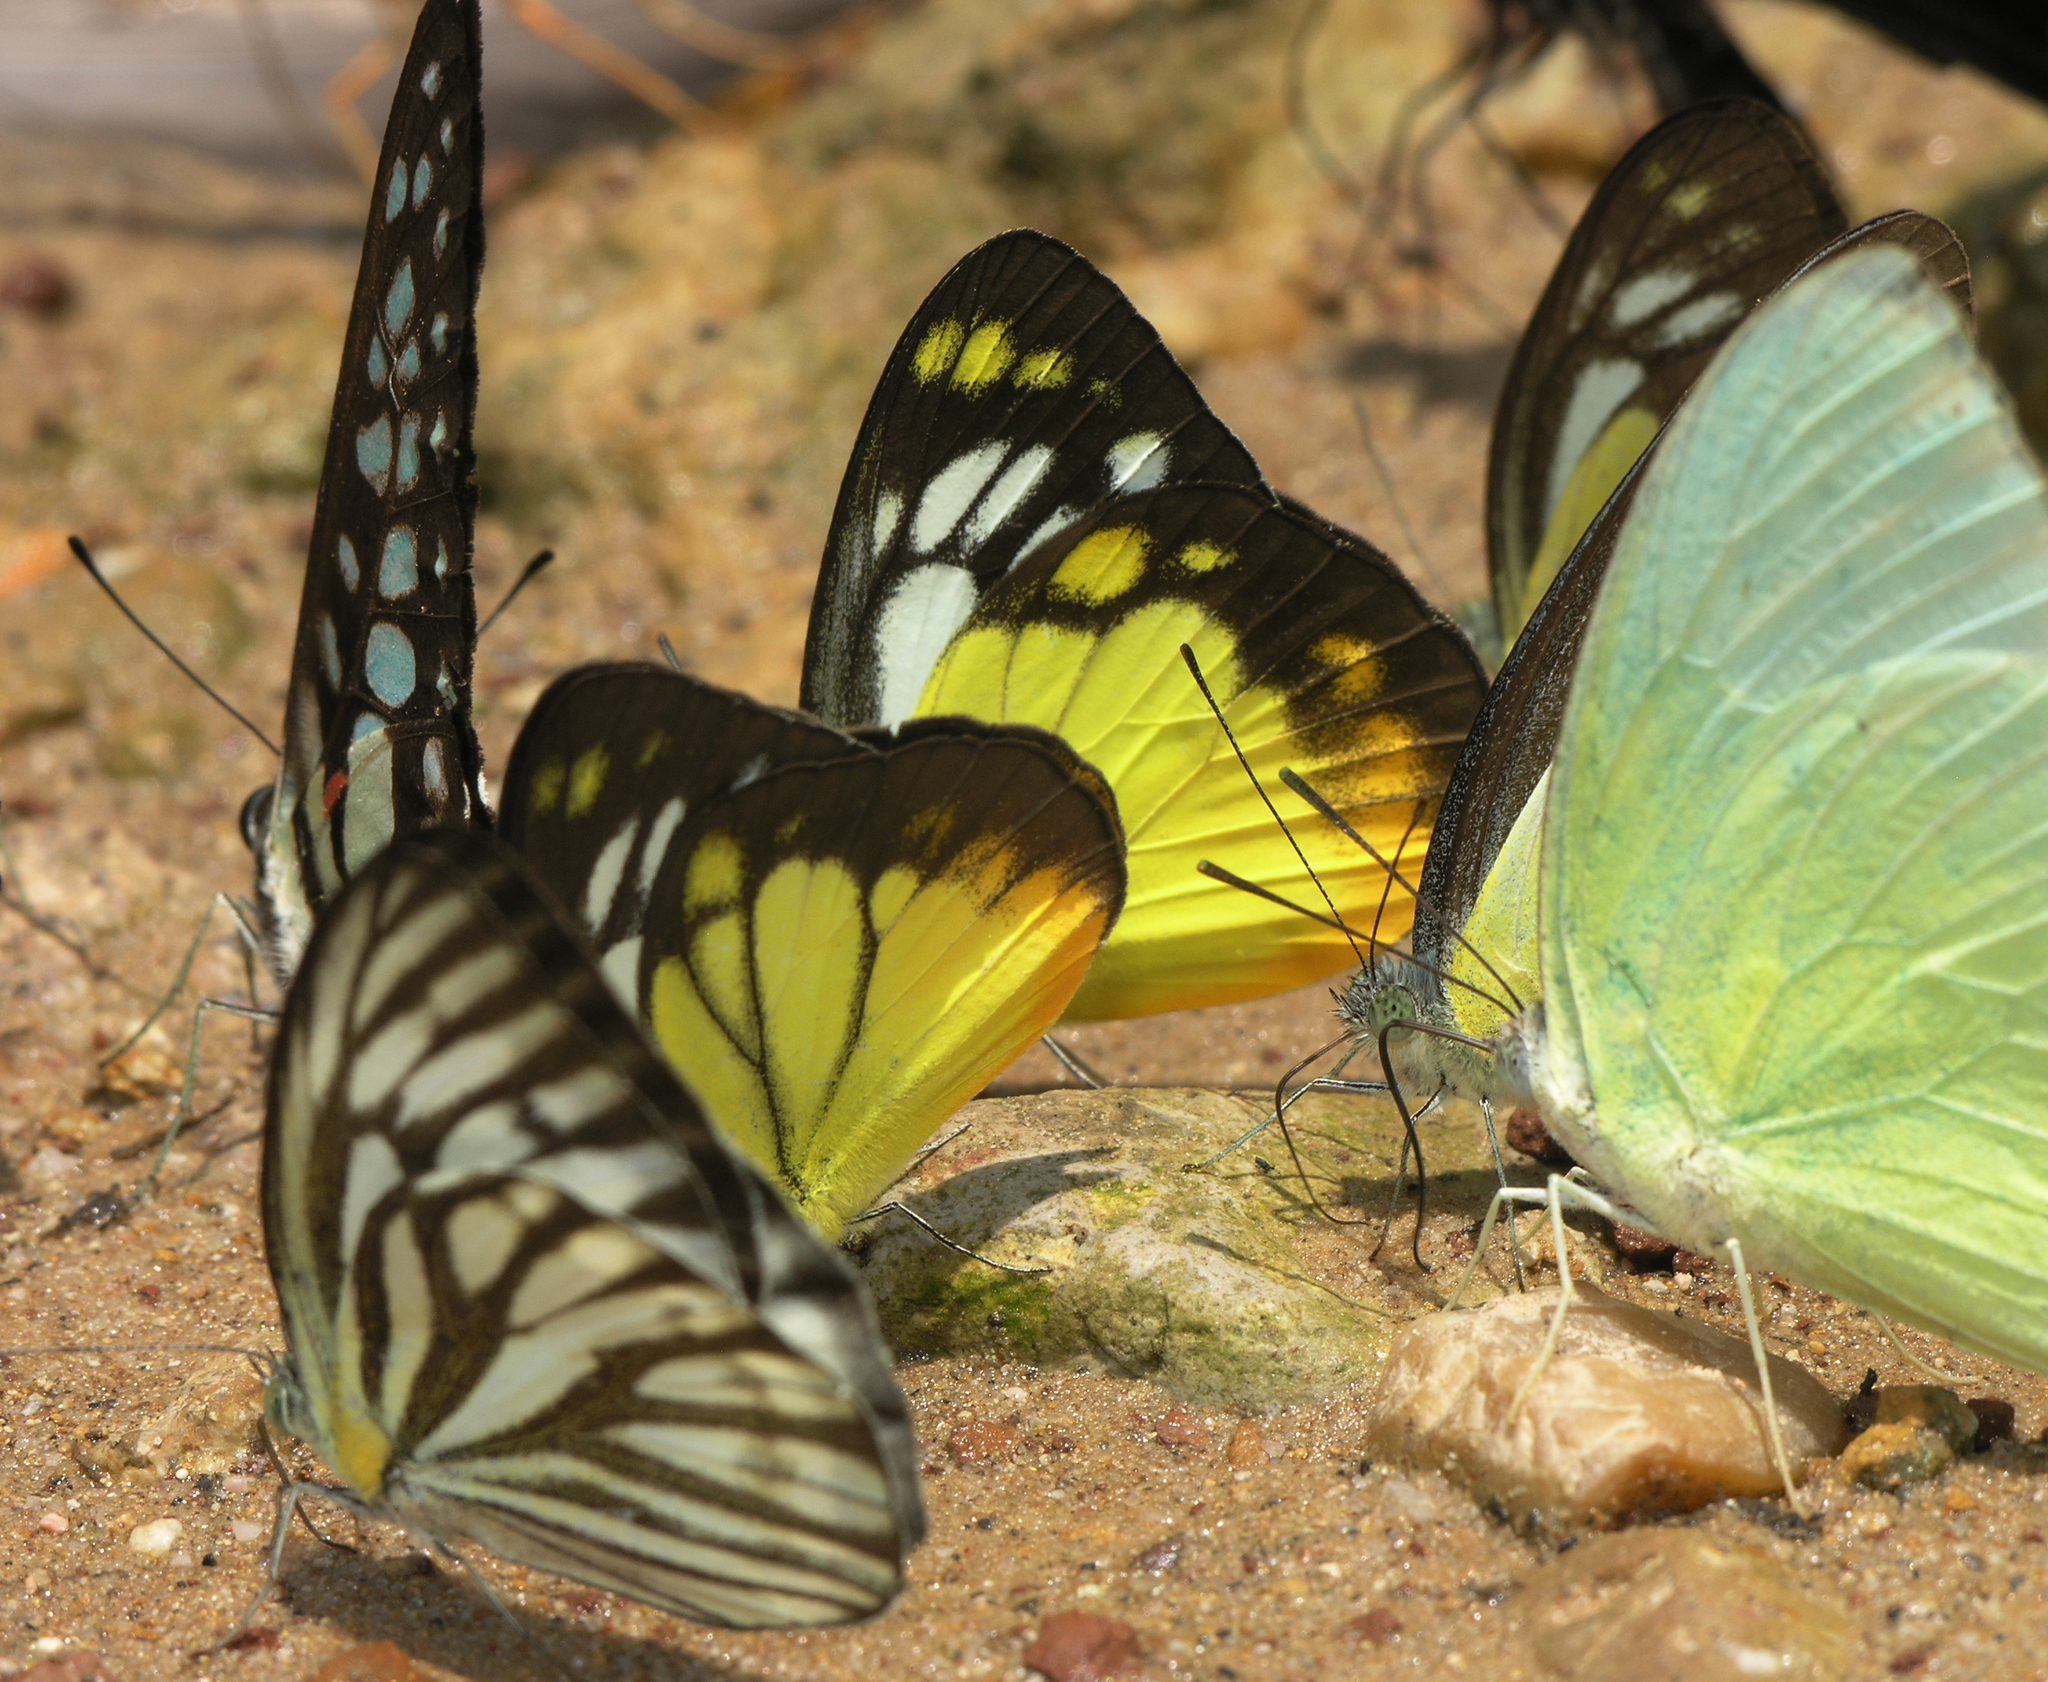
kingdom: Animalia
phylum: Arthropoda
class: Insecta
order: Lepidoptera
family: Pieridae
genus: Cepora
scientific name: Cepora nerissa
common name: Common gull
